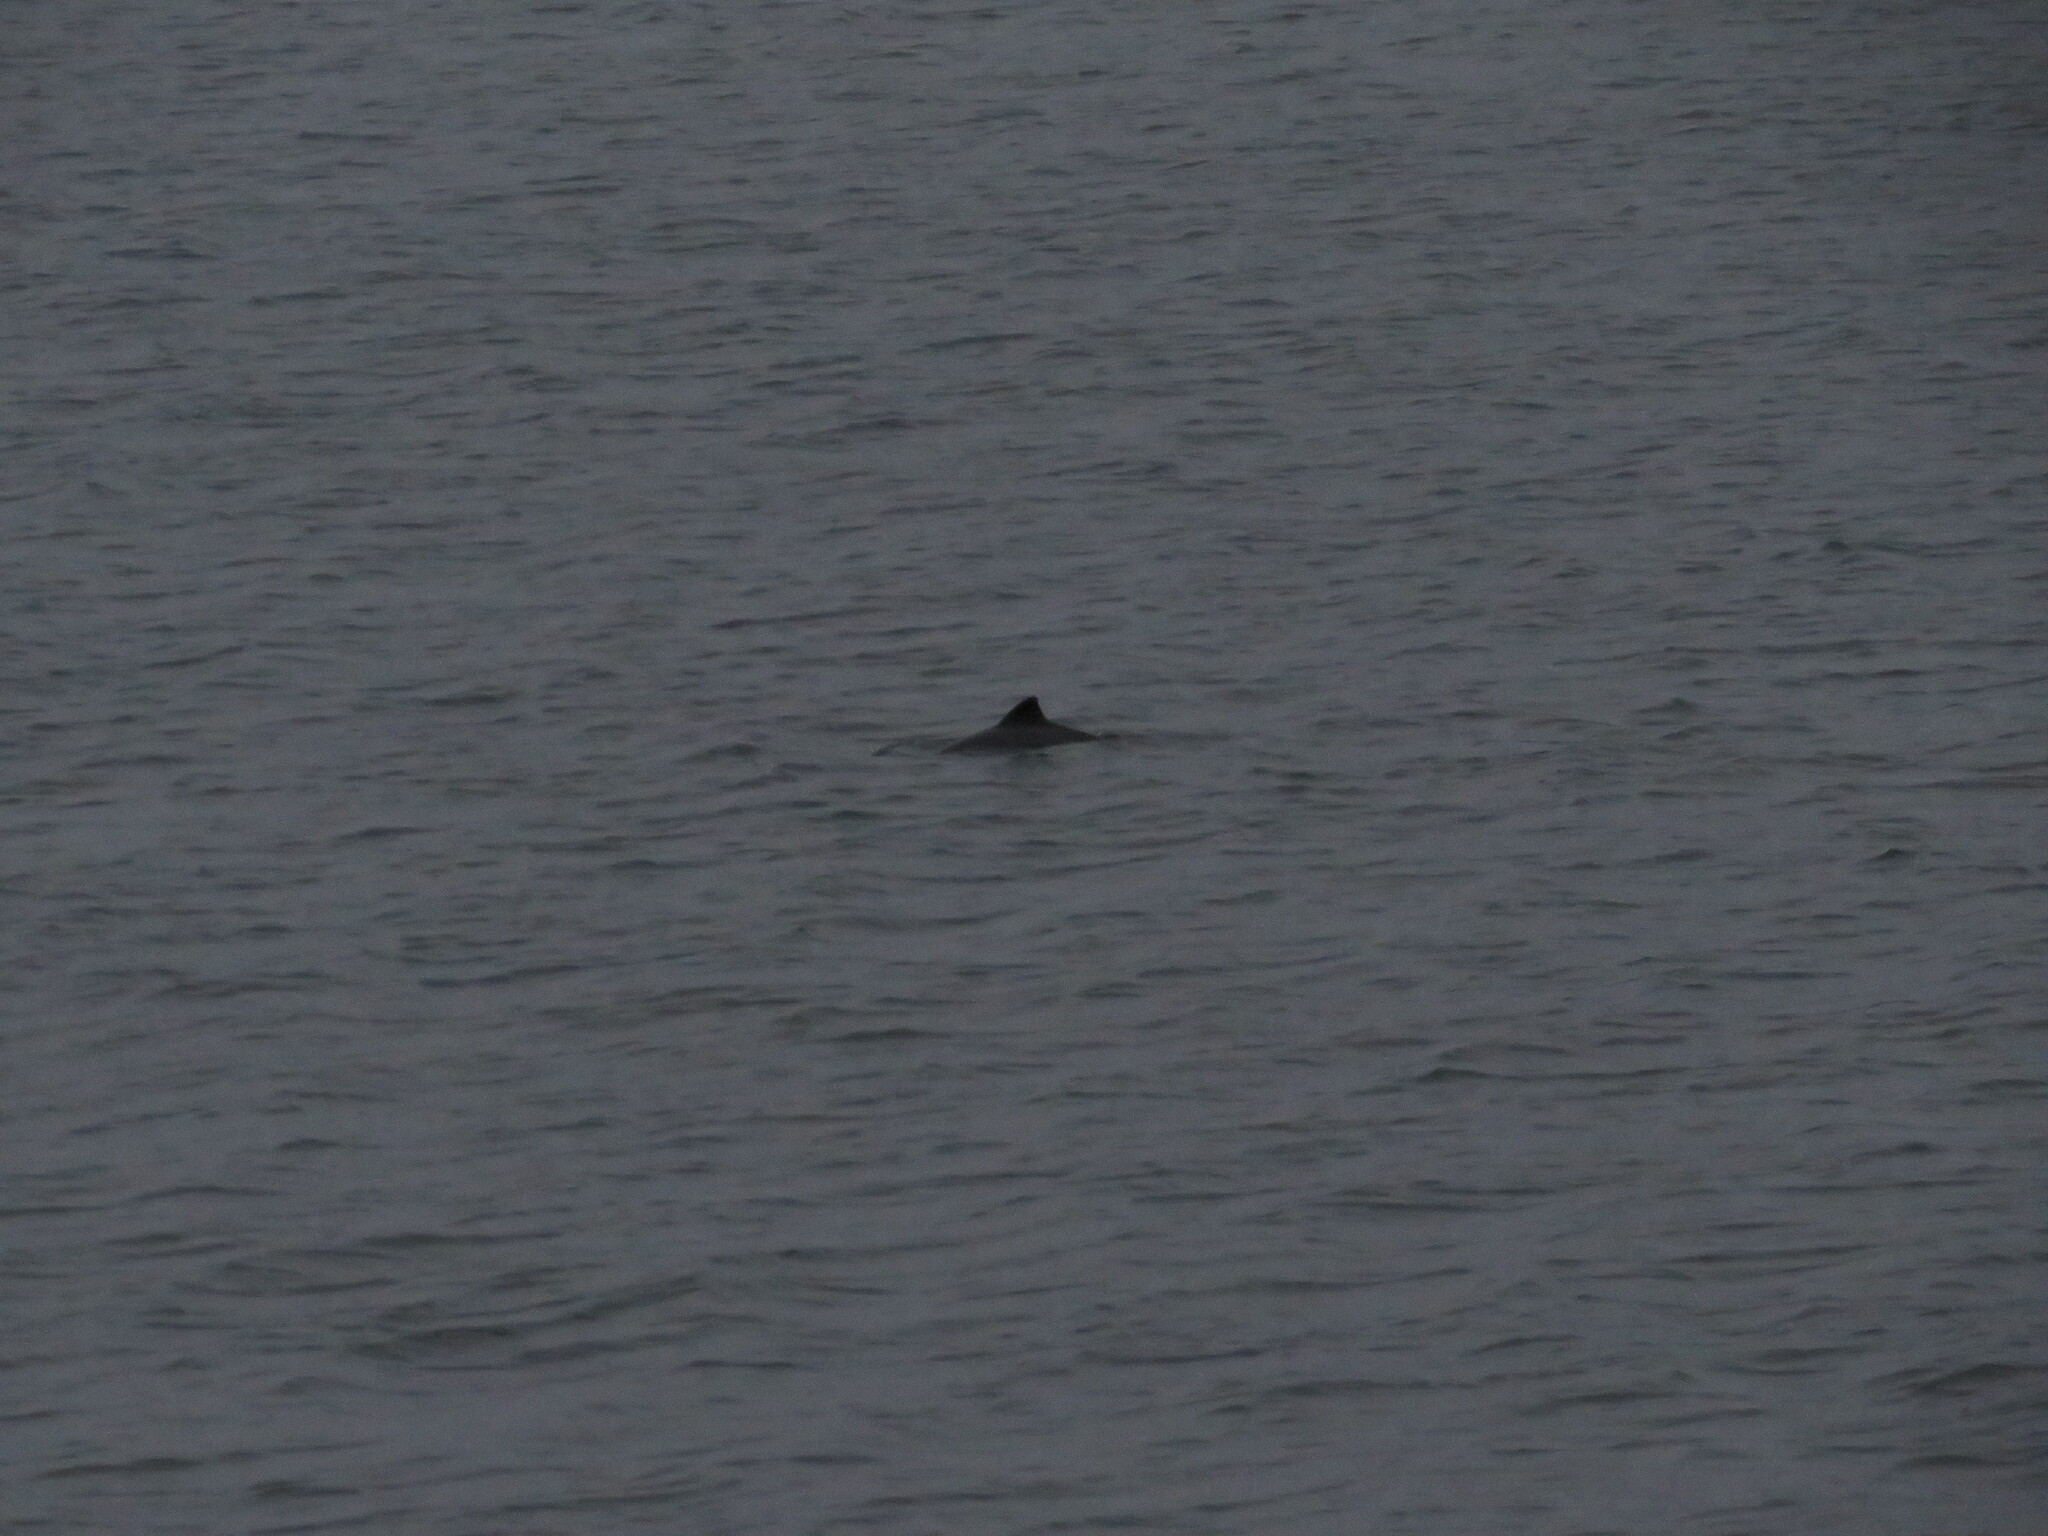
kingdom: Animalia
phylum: Chordata
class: Mammalia
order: Cetacea
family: Phocoenidae
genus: Phocoena
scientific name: Phocoena phocoena
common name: Harbor porpoise
